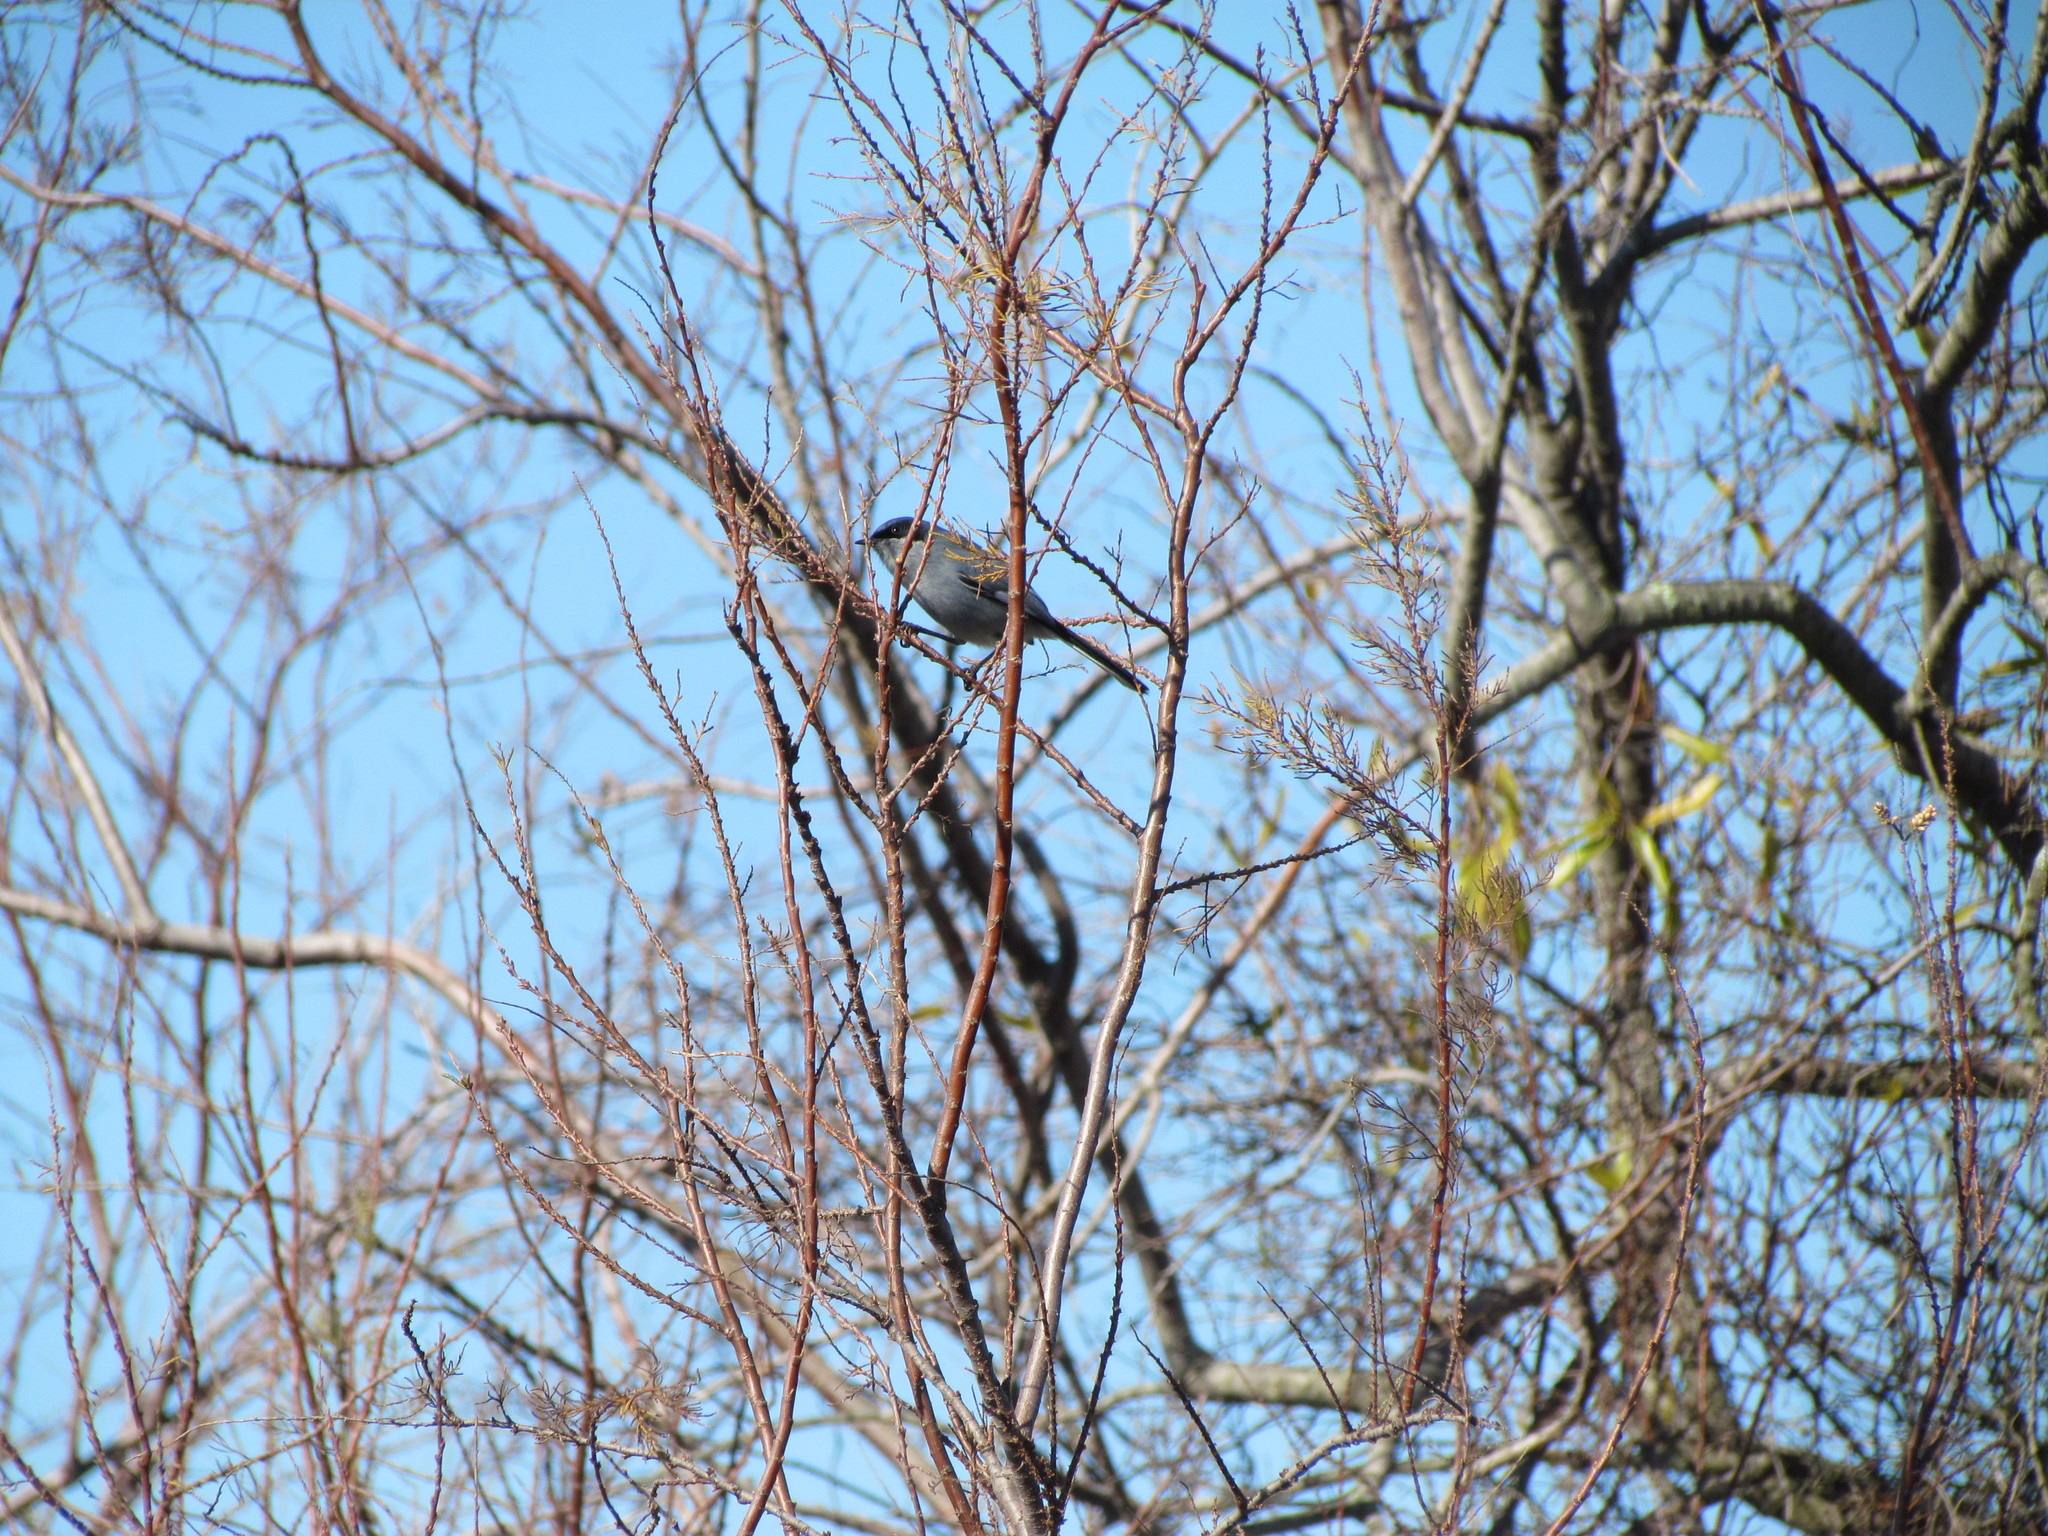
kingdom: Animalia
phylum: Chordata
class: Aves
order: Passeriformes
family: Polioptilidae
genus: Polioptila
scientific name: Polioptila dumicola
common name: Masked gnatcatcher
